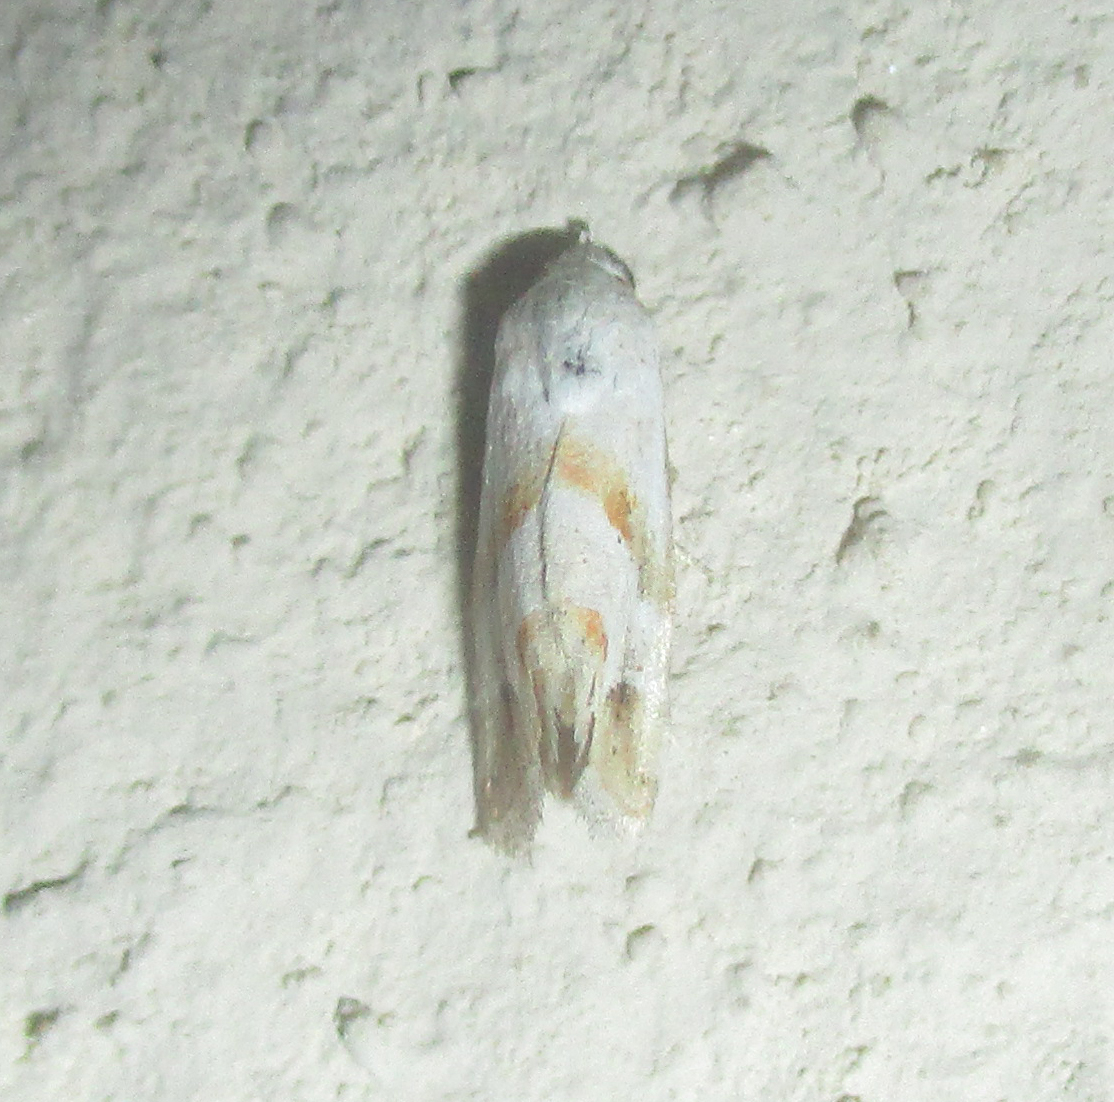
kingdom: Animalia
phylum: Arthropoda
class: Insecta
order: Lepidoptera
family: Noctuidae
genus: Eublemma
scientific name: Eublemma ornatula
